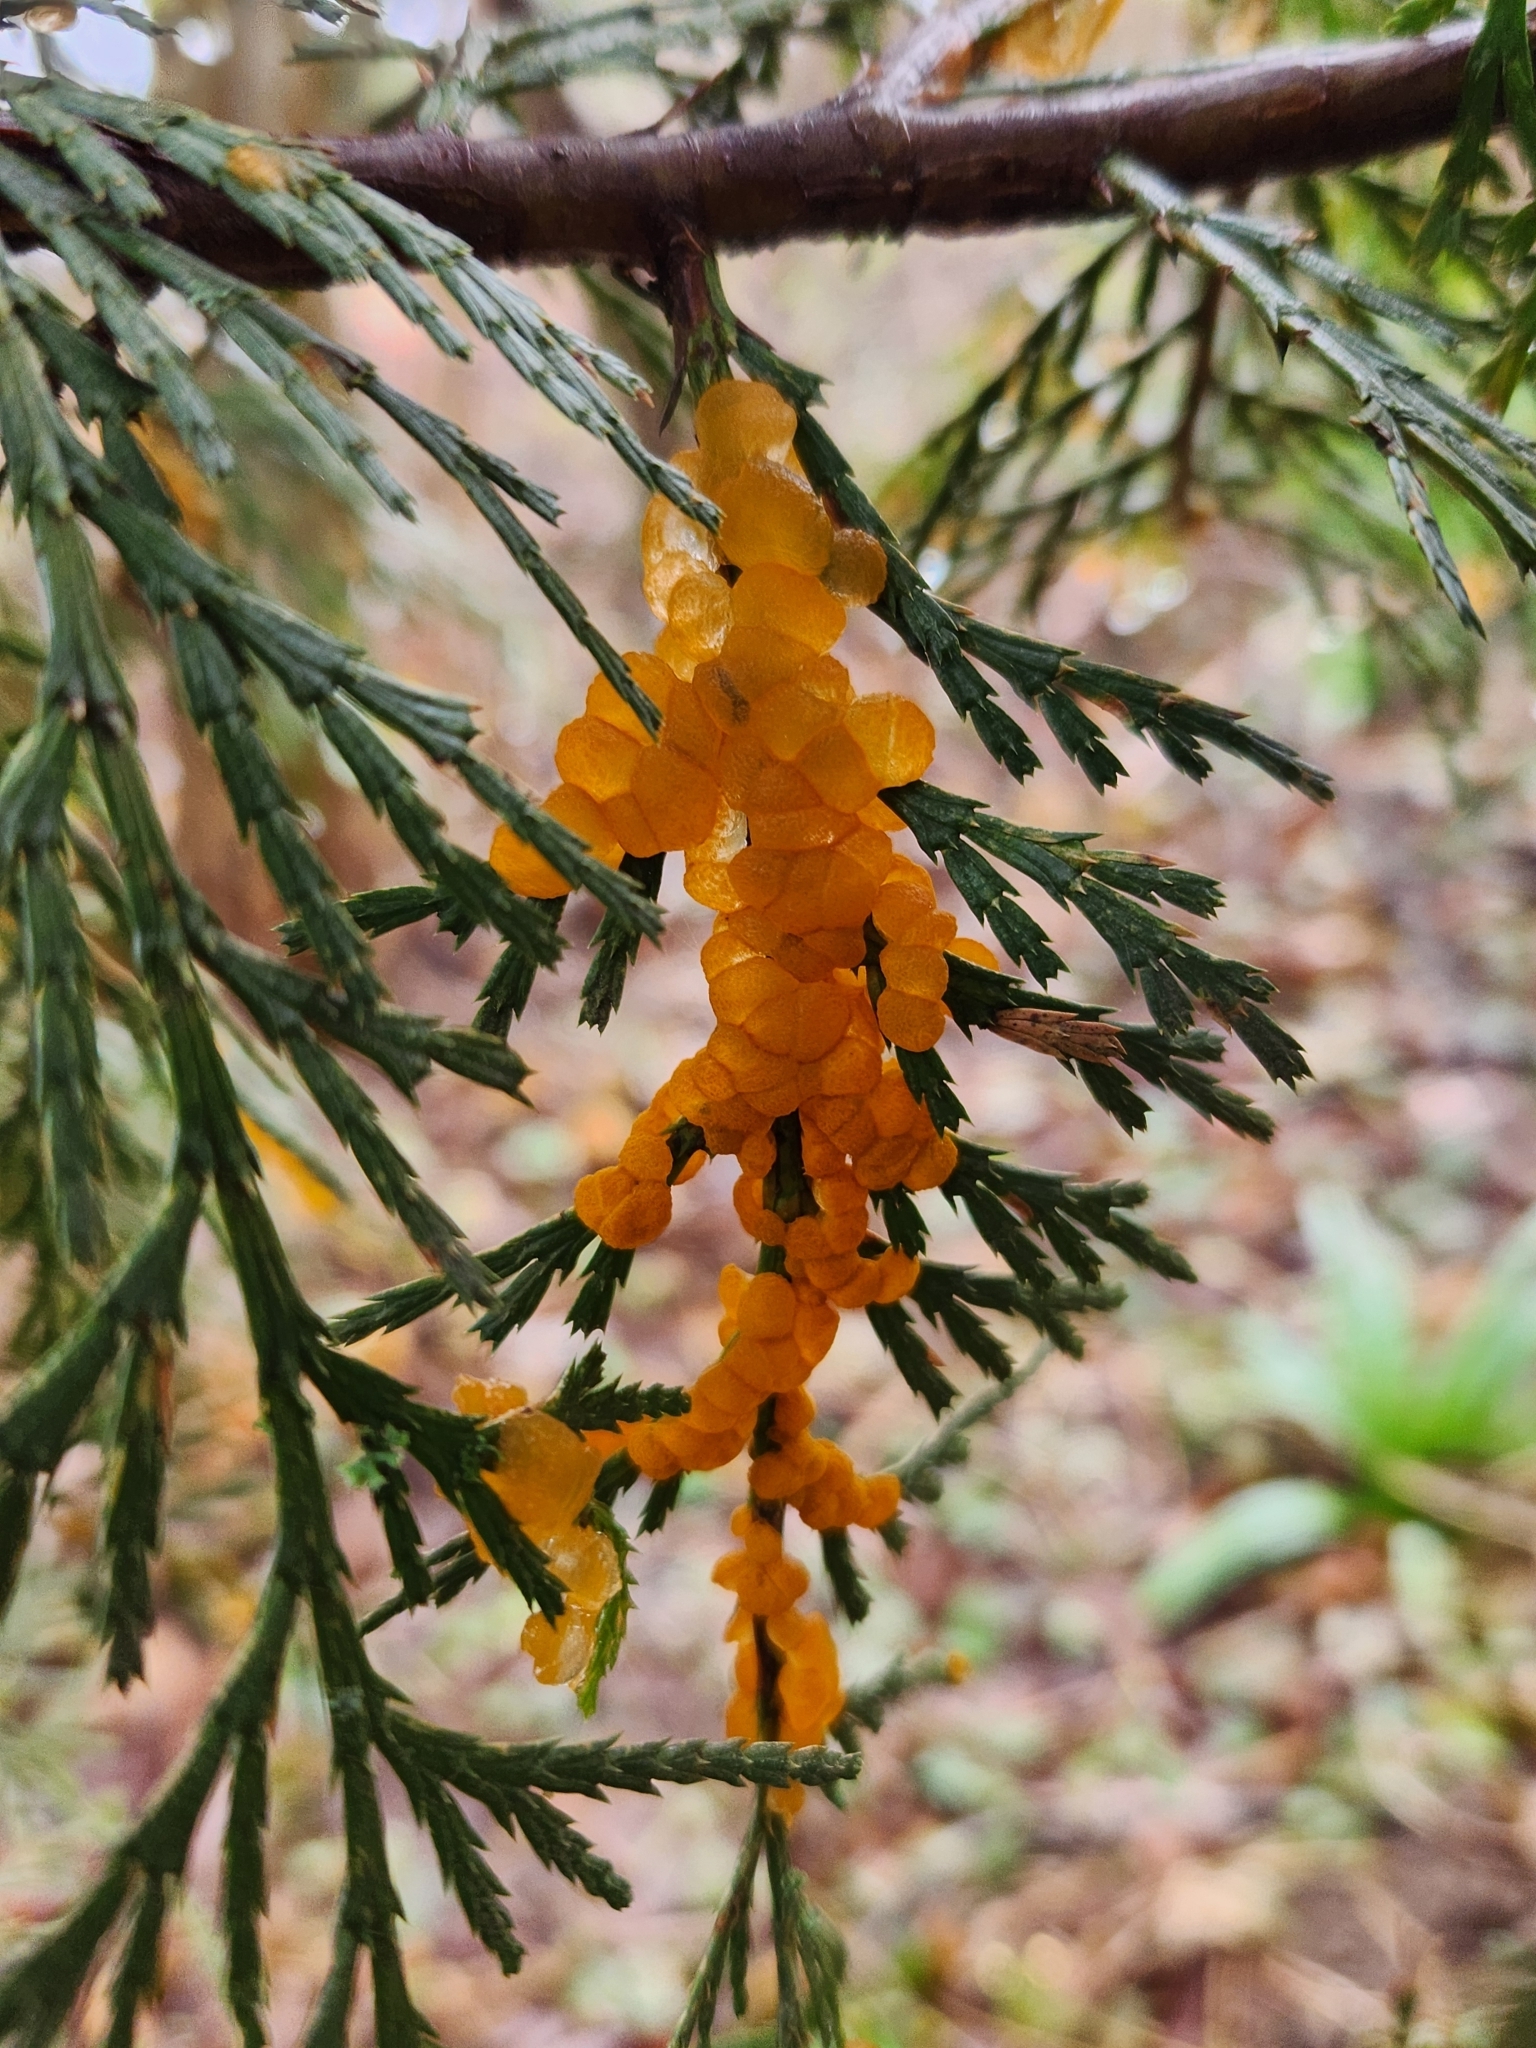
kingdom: Fungi
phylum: Basidiomycota
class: Pucciniomycetes
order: Pucciniales
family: Pucciniaceae
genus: Gymnotelium
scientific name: Gymnotelium blasdaleanum
